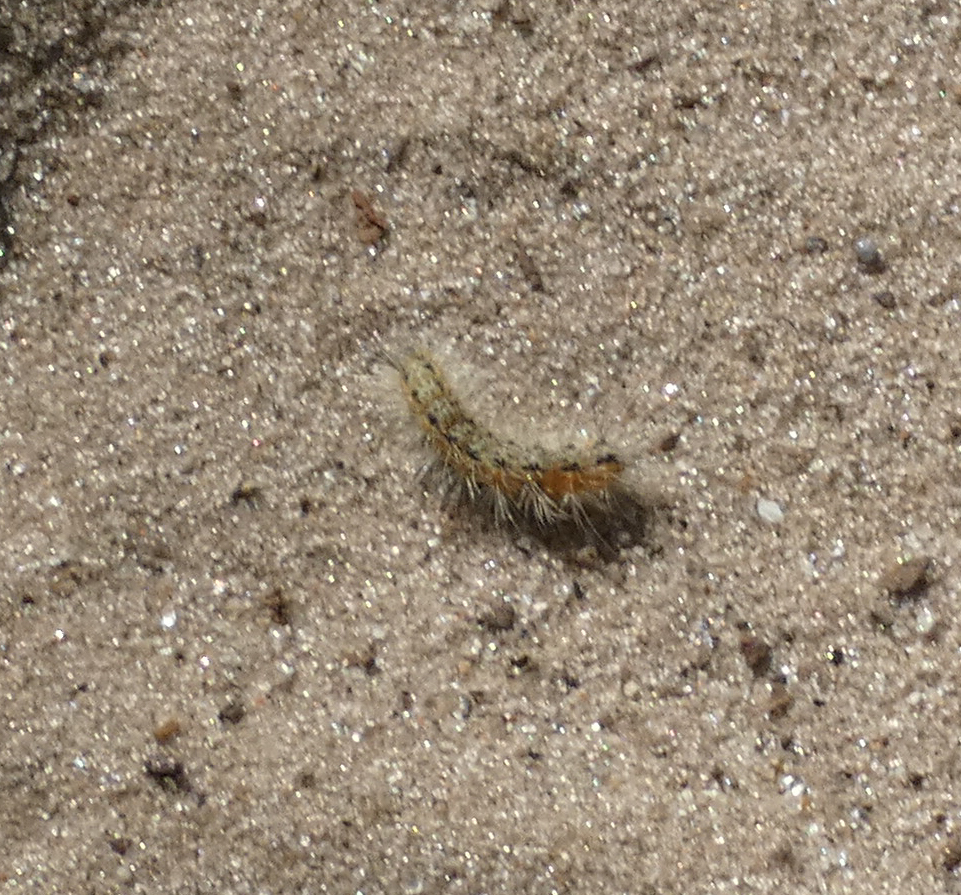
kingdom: Animalia
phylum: Arthropoda
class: Insecta
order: Lepidoptera
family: Erebidae
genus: Hyphantria
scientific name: Hyphantria cunea
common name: American white moth
